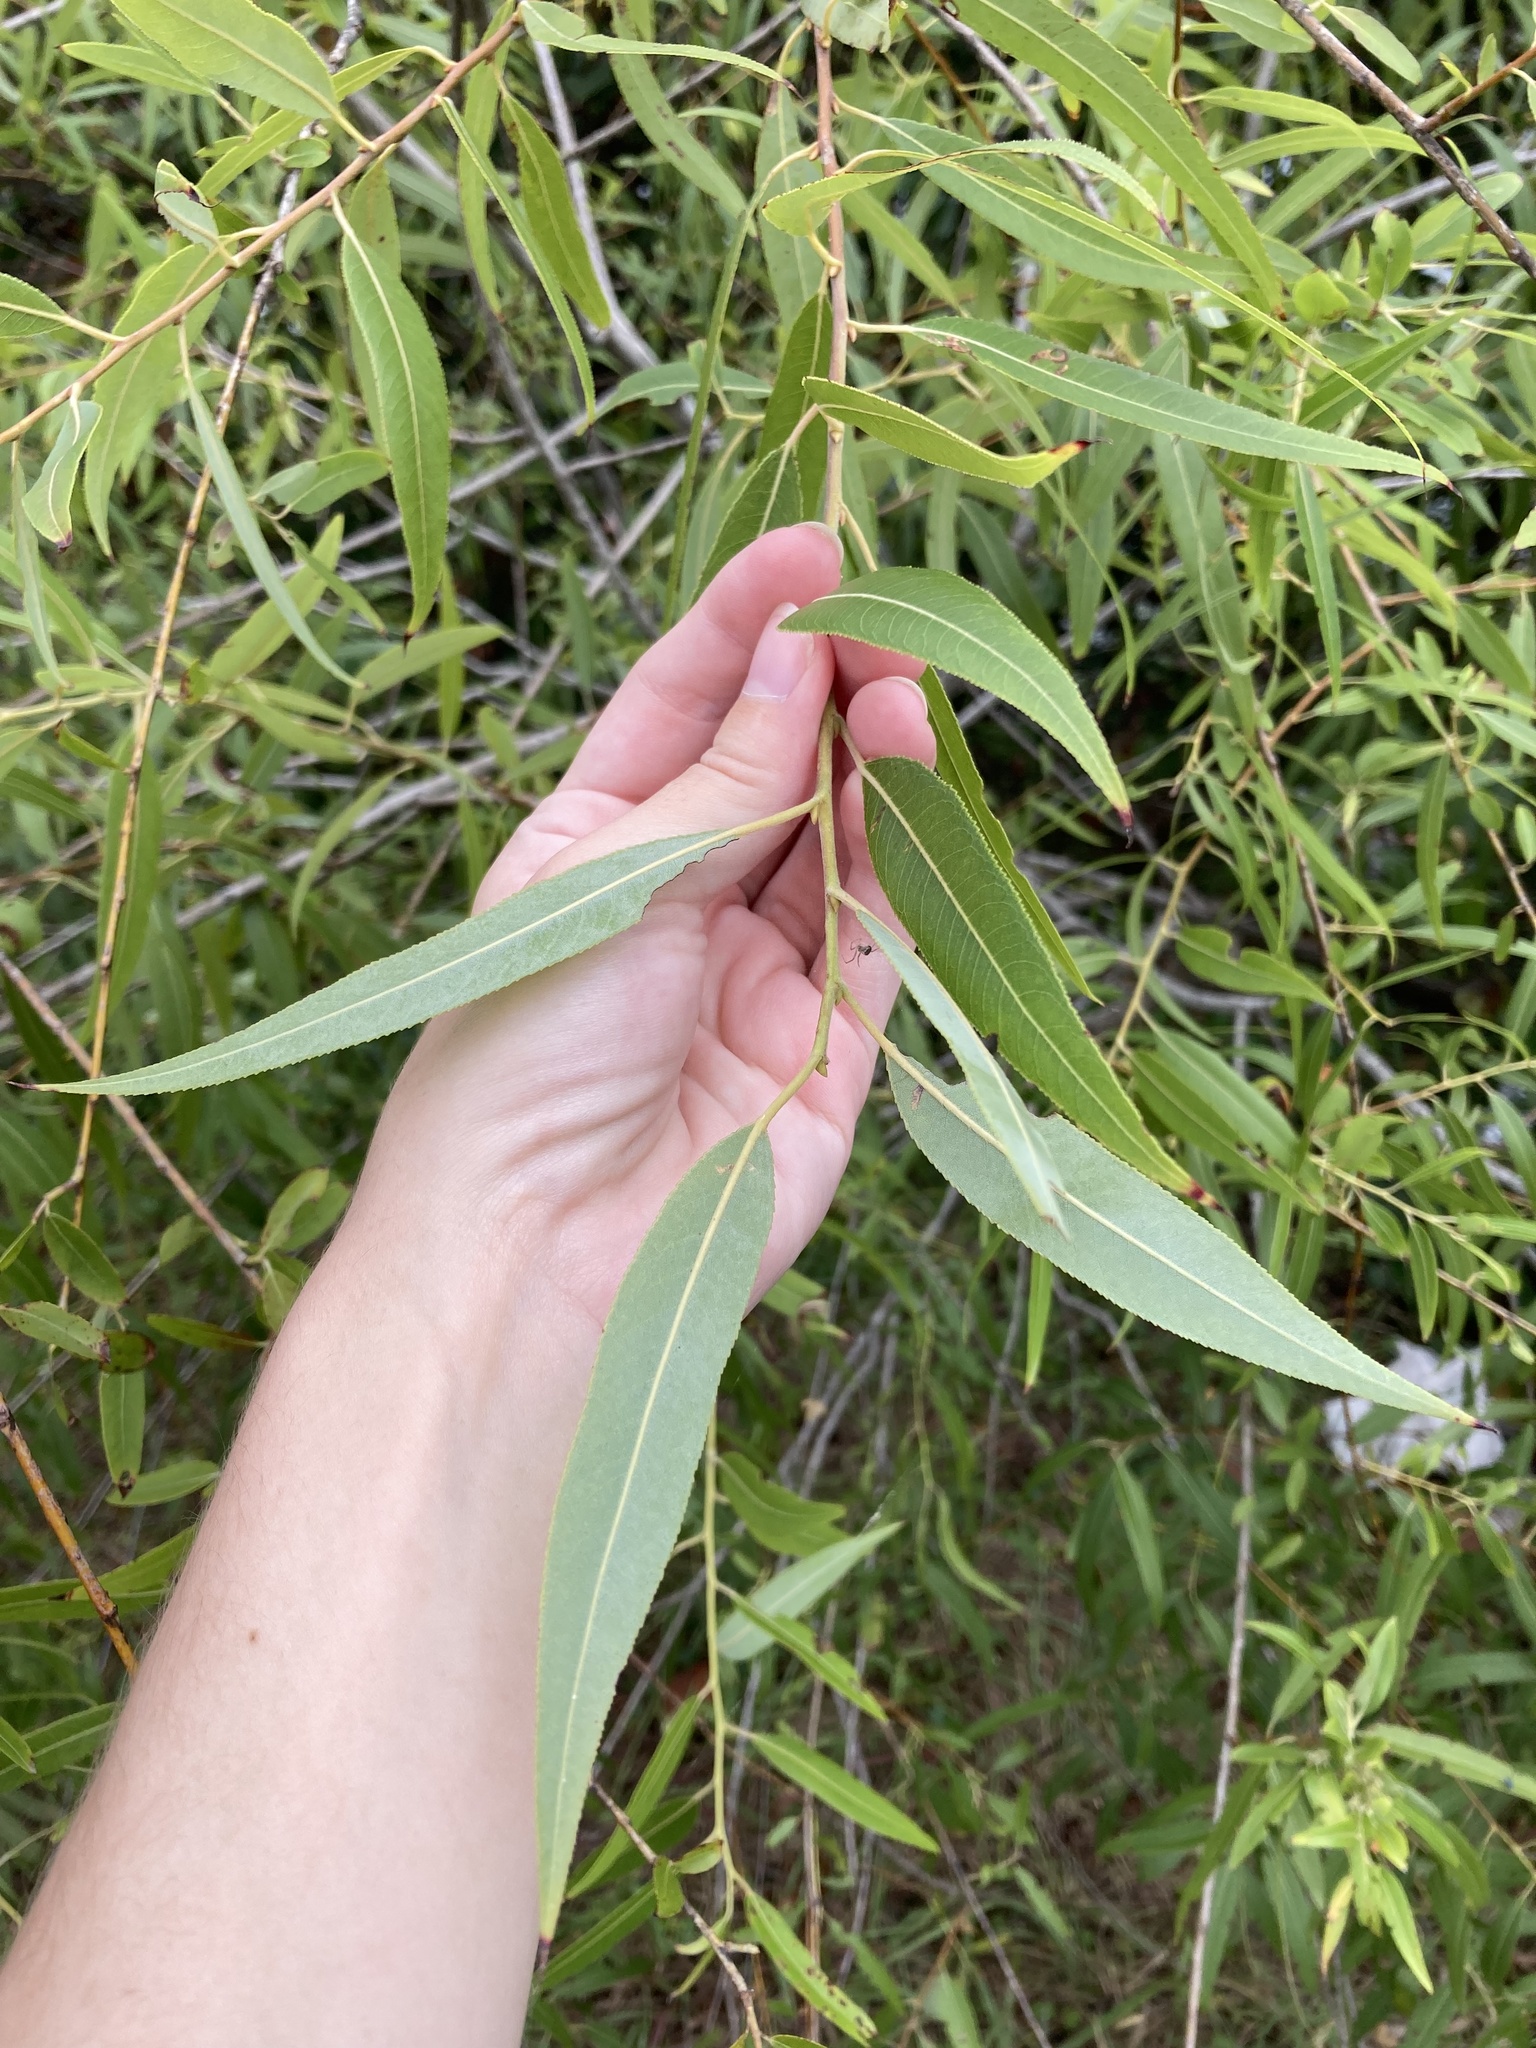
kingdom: Plantae
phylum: Tracheophyta
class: Magnoliopsida
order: Malpighiales
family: Salicaceae
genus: Salix
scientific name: Salix caroliniana
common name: Carolina willow
